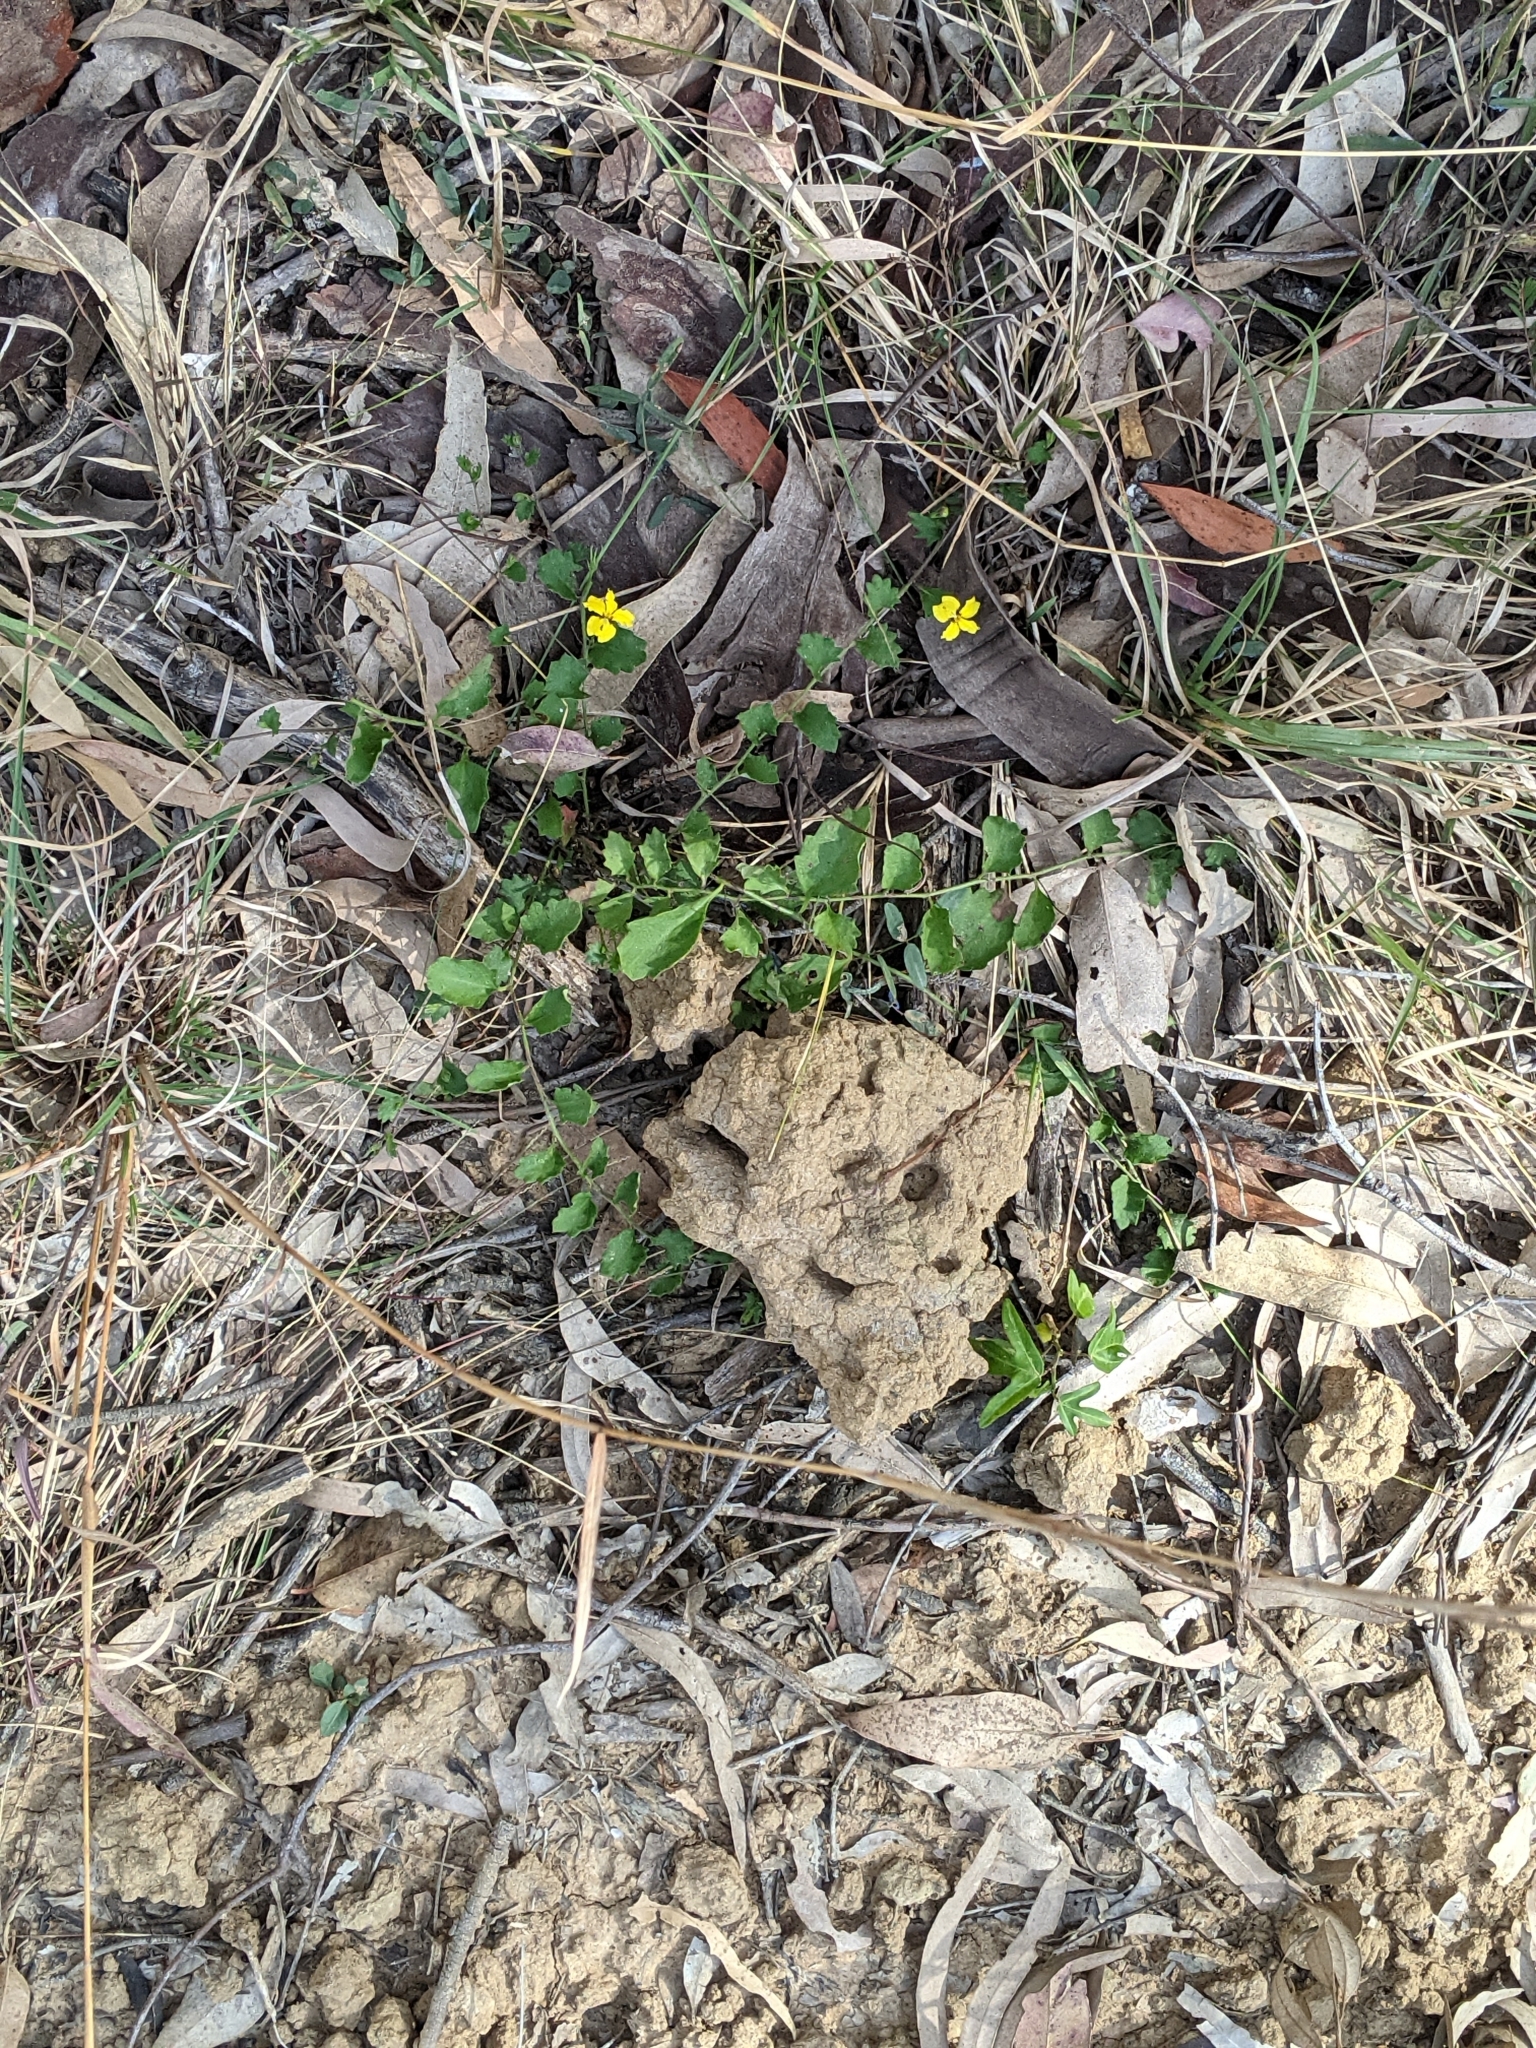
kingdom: Plantae
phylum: Tracheophyta
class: Magnoliopsida
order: Asterales
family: Goodeniaceae
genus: Goodenia
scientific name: Goodenia rotundifolia
